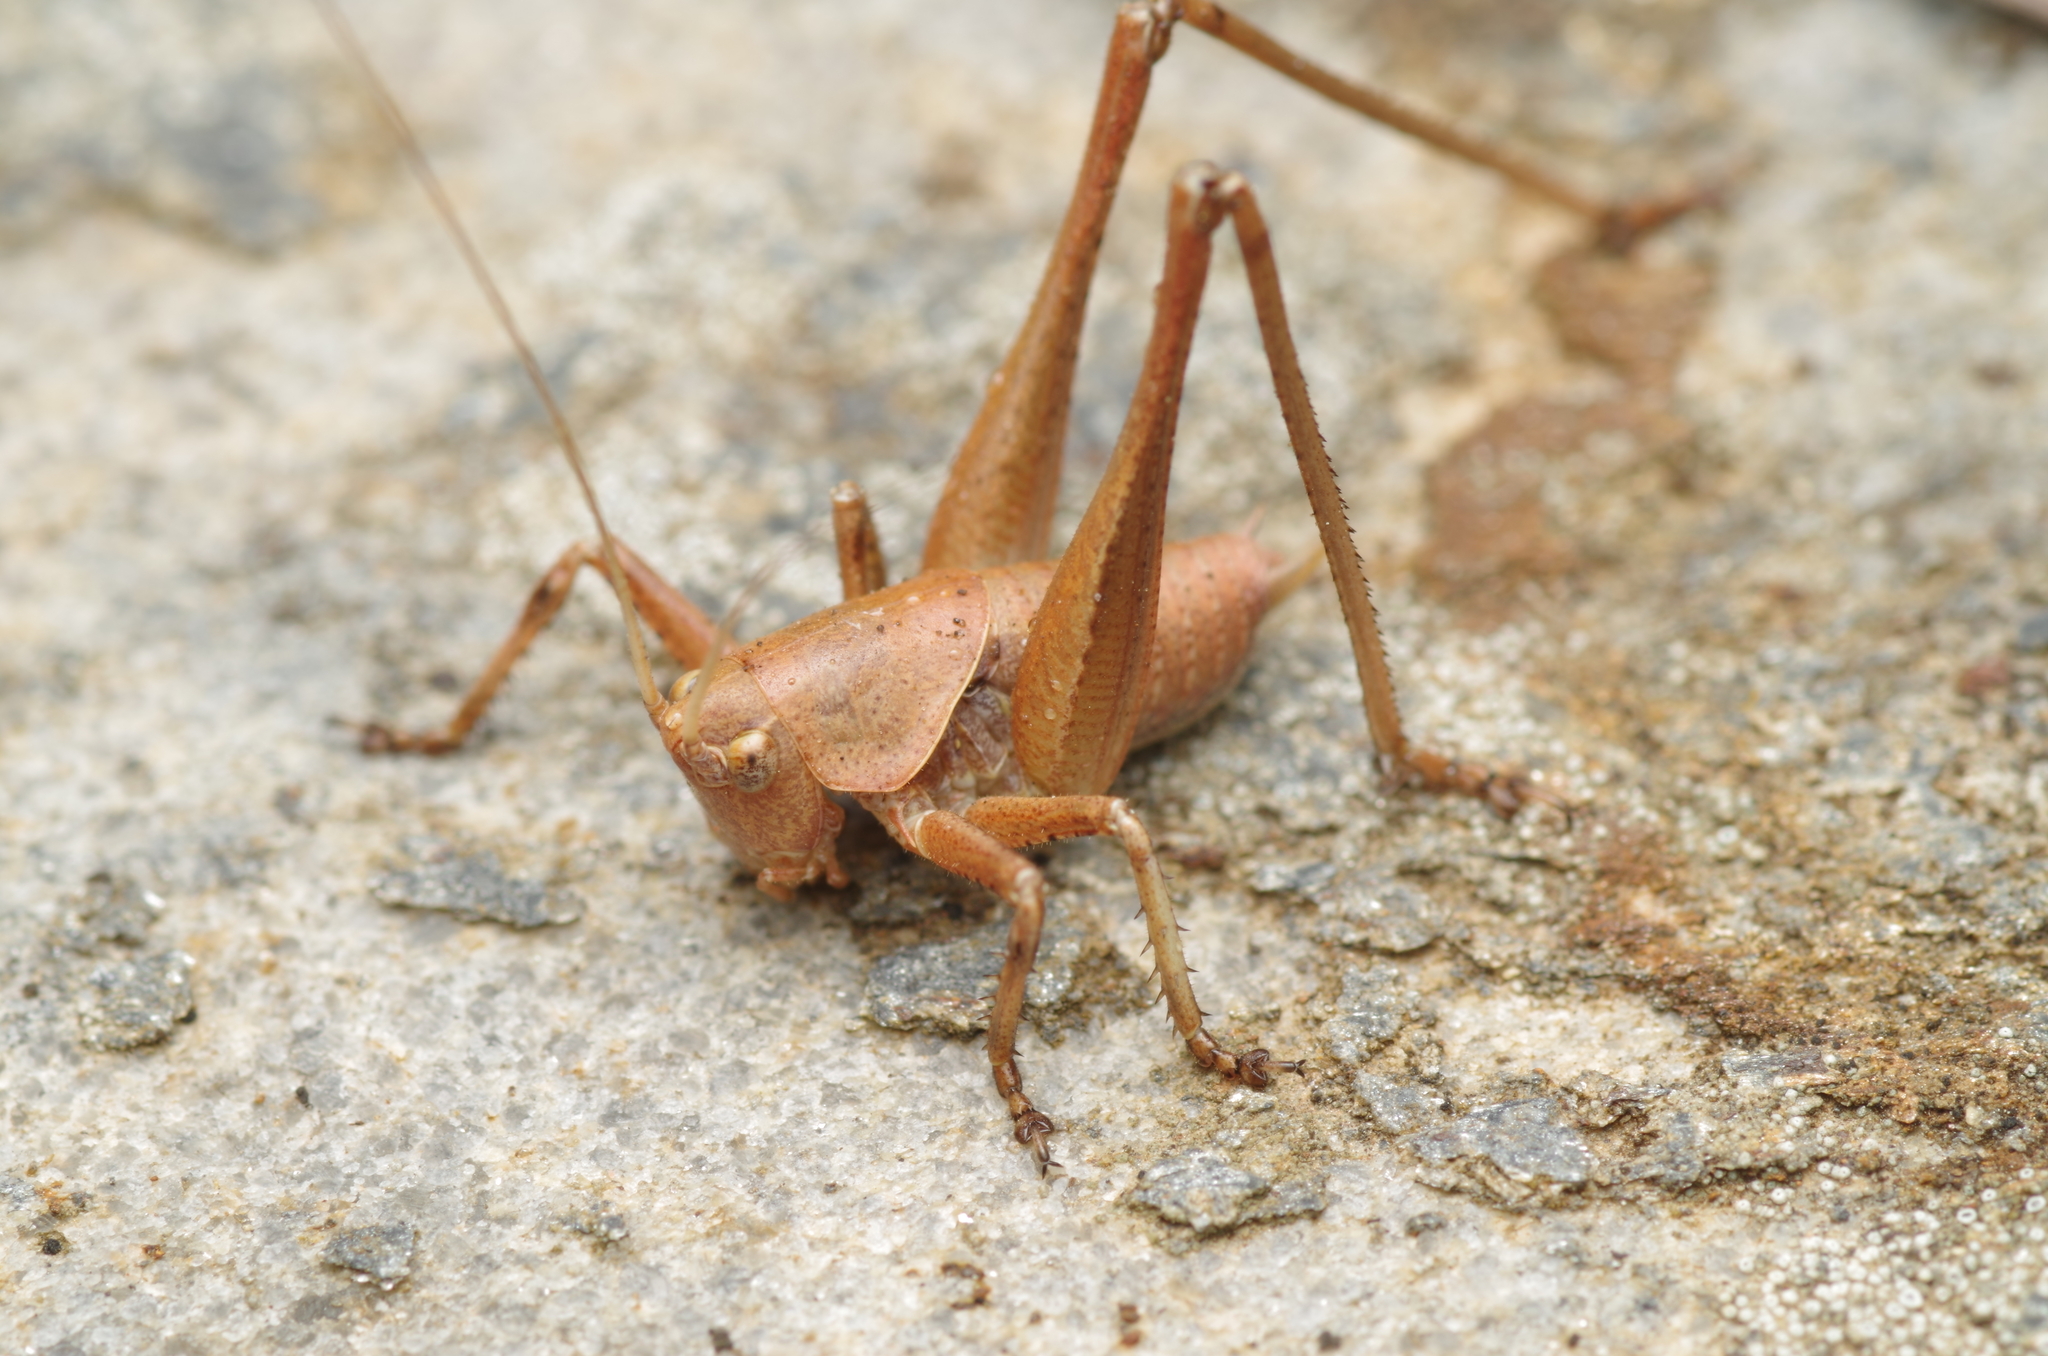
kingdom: Animalia
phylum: Arthropoda
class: Insecta
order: Orthoptera
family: Tettigoniidae
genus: Thyreonotus
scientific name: Thyreonotus corsicus
